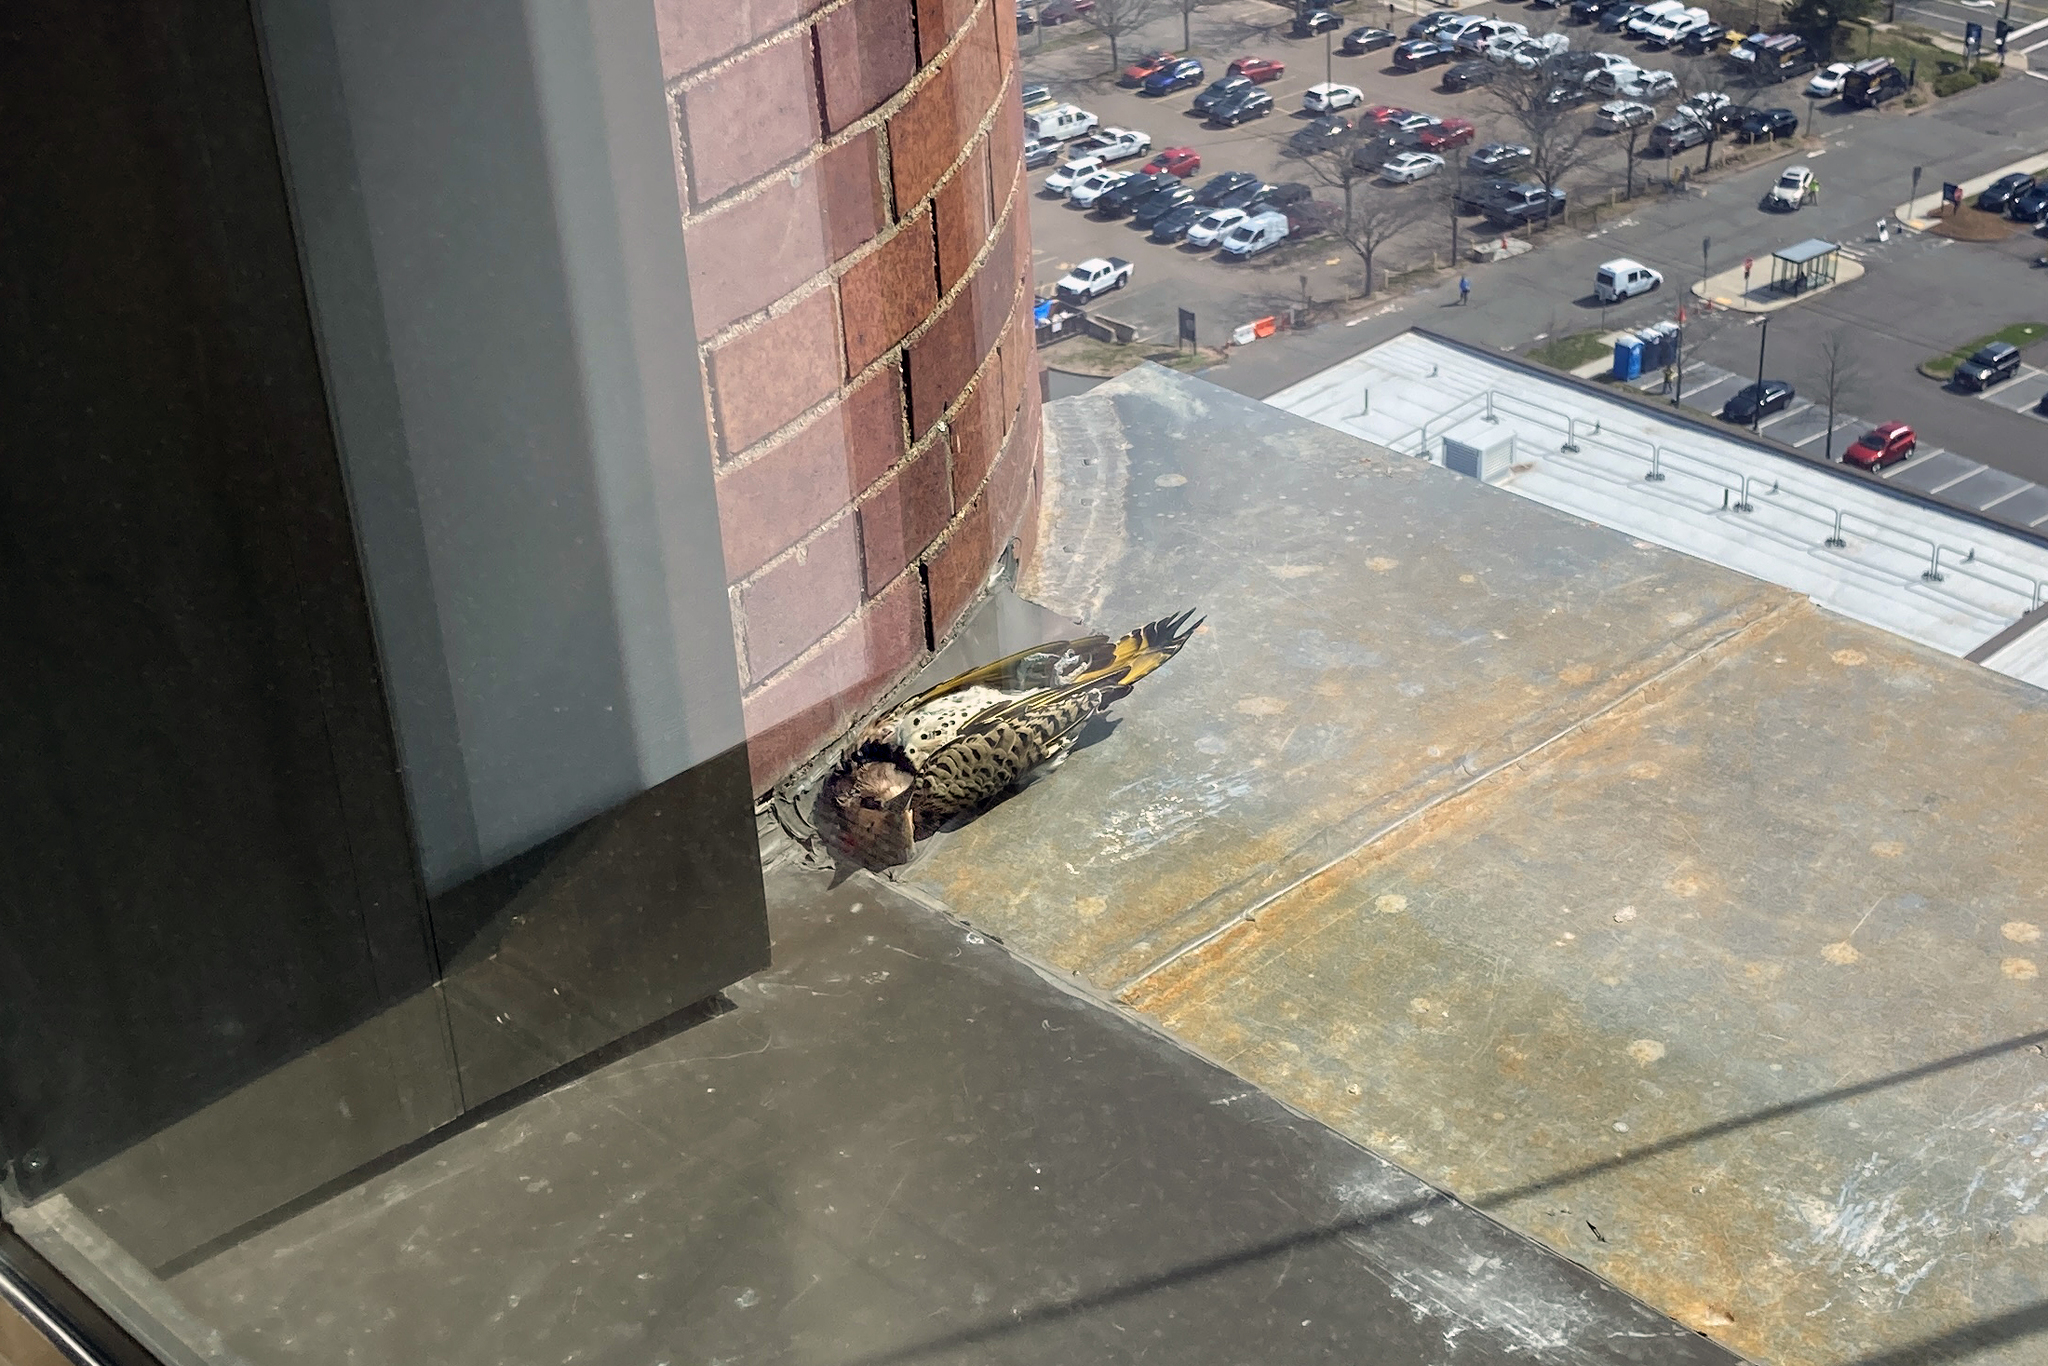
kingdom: Animalia
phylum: Chordata
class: Aves
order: Piciformes
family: Picidae
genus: Colaptes
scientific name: Colaptes auratus
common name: Northern flicker
